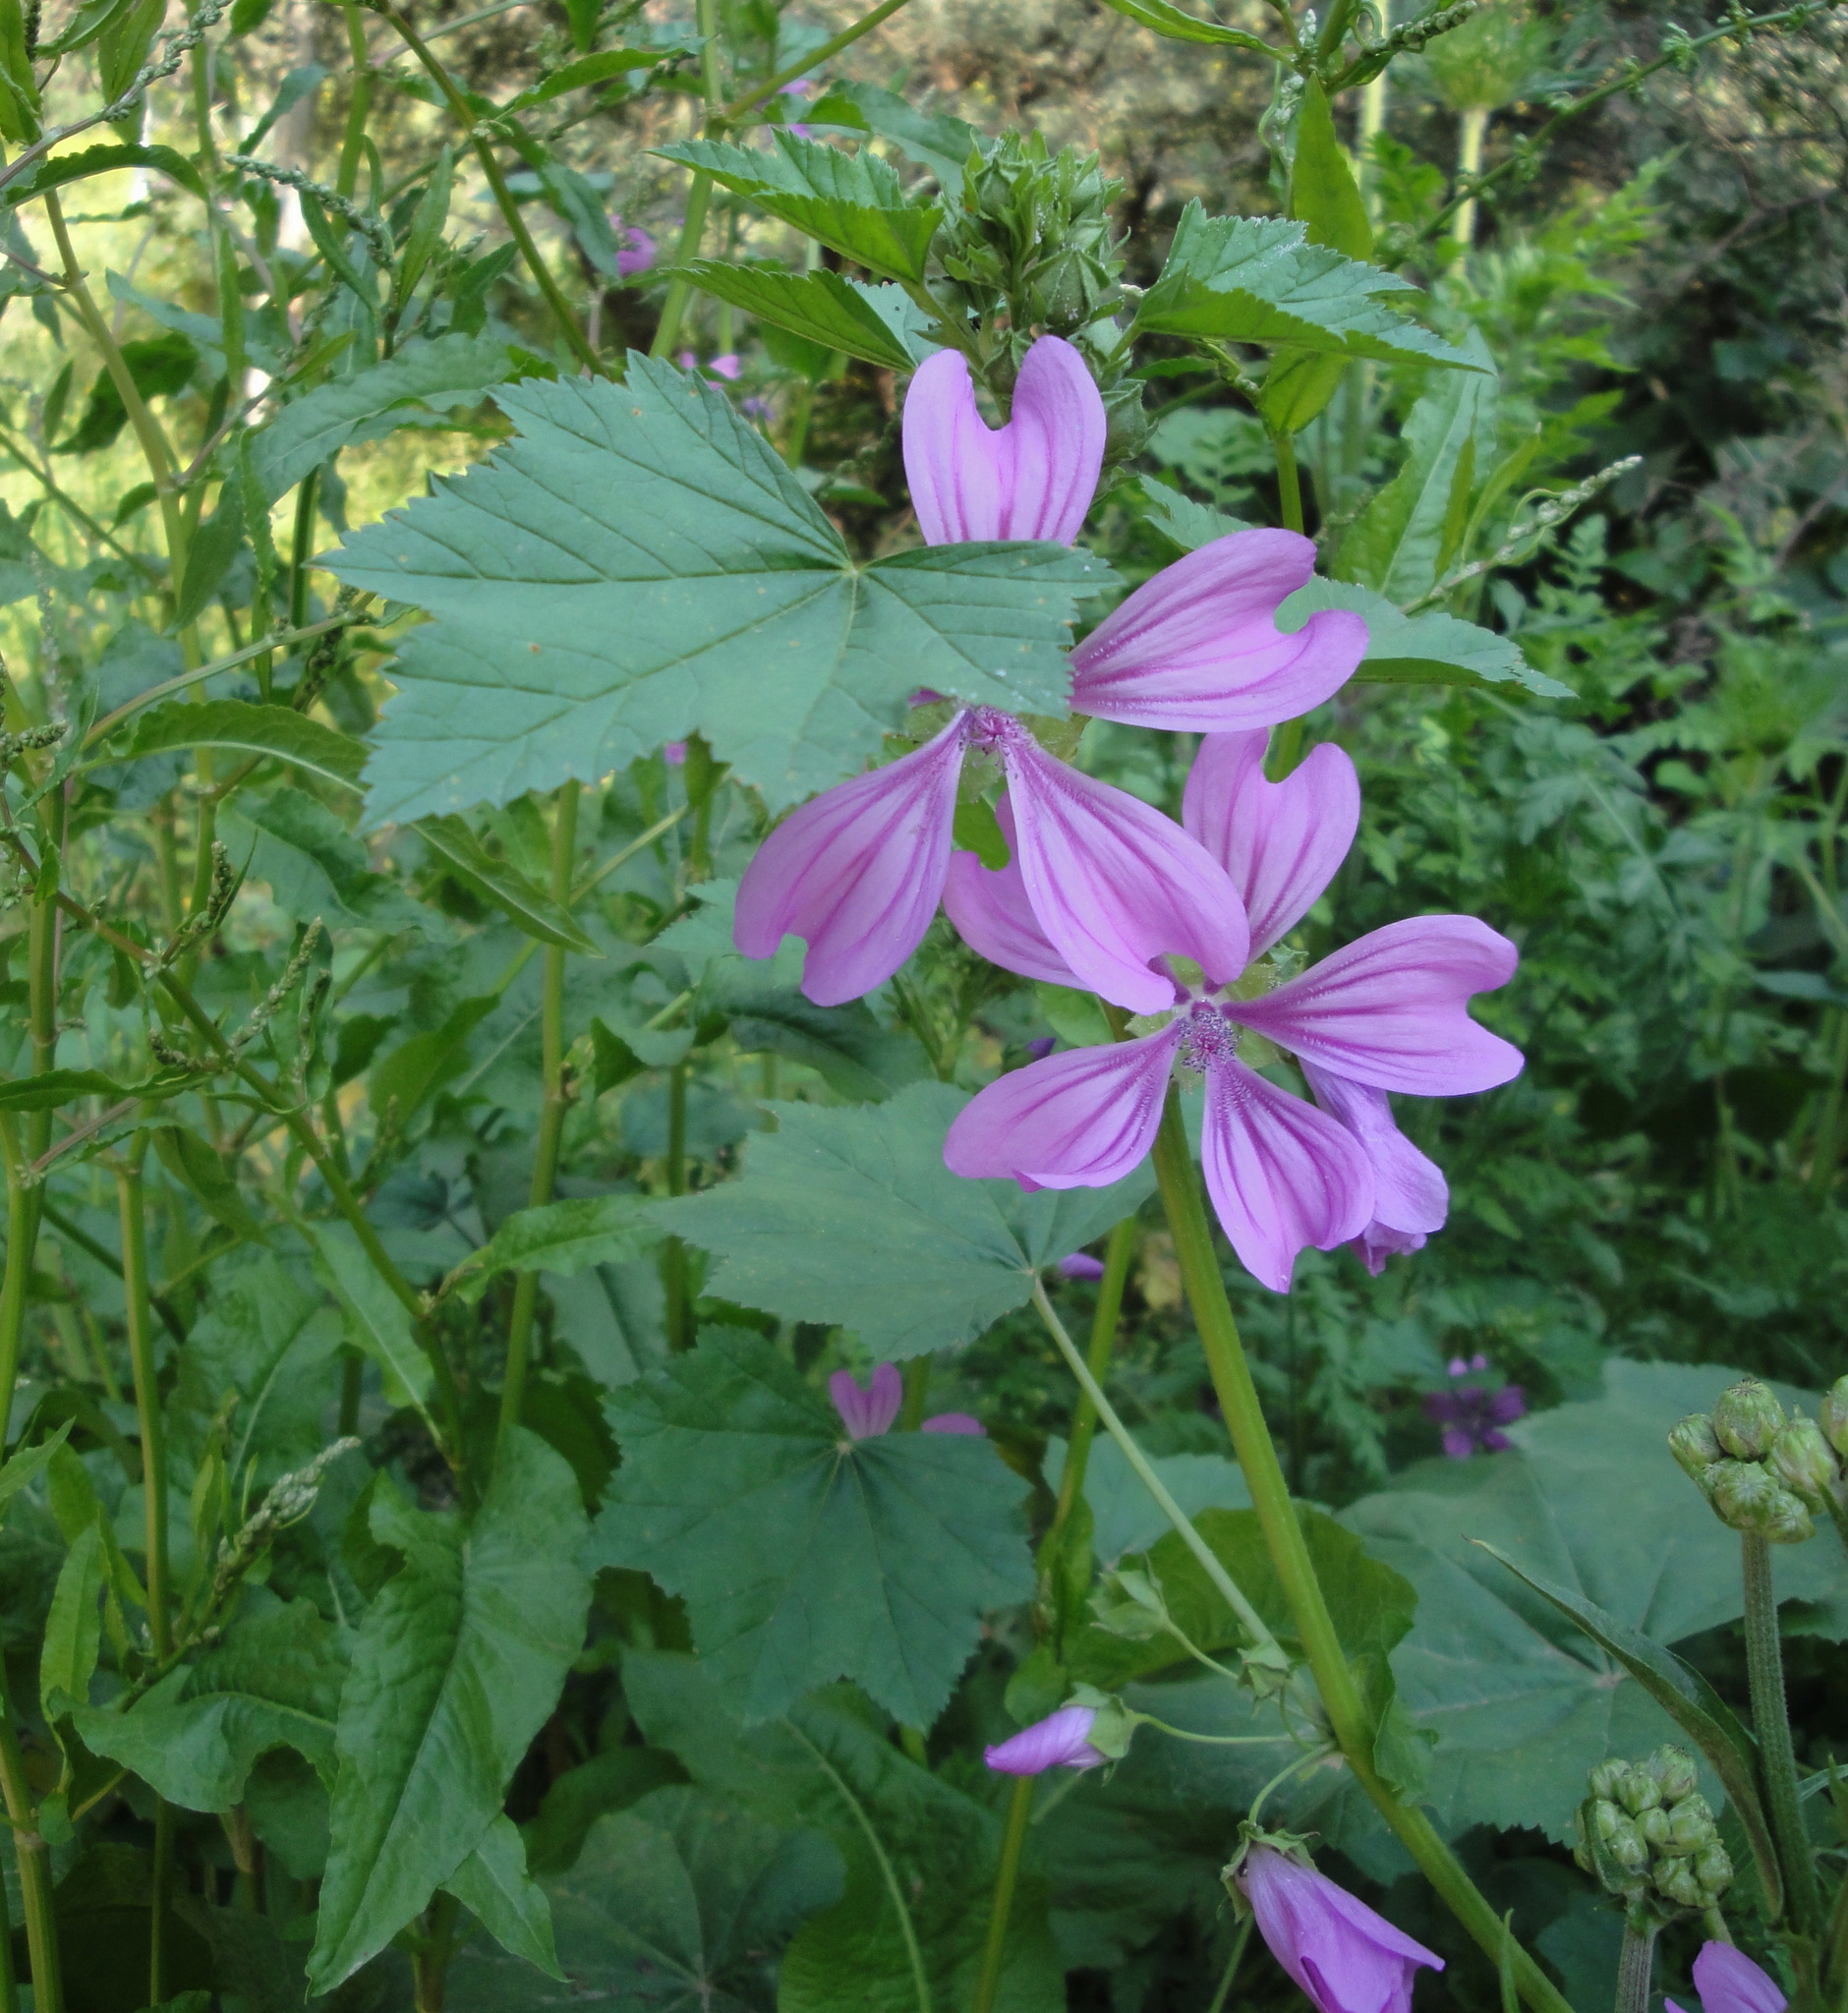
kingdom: Plantae
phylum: Tracheophyta
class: Magnoliopsida
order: Malvales
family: Malvaceae
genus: Malva
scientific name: Malva sylvestris
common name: Common mallow
